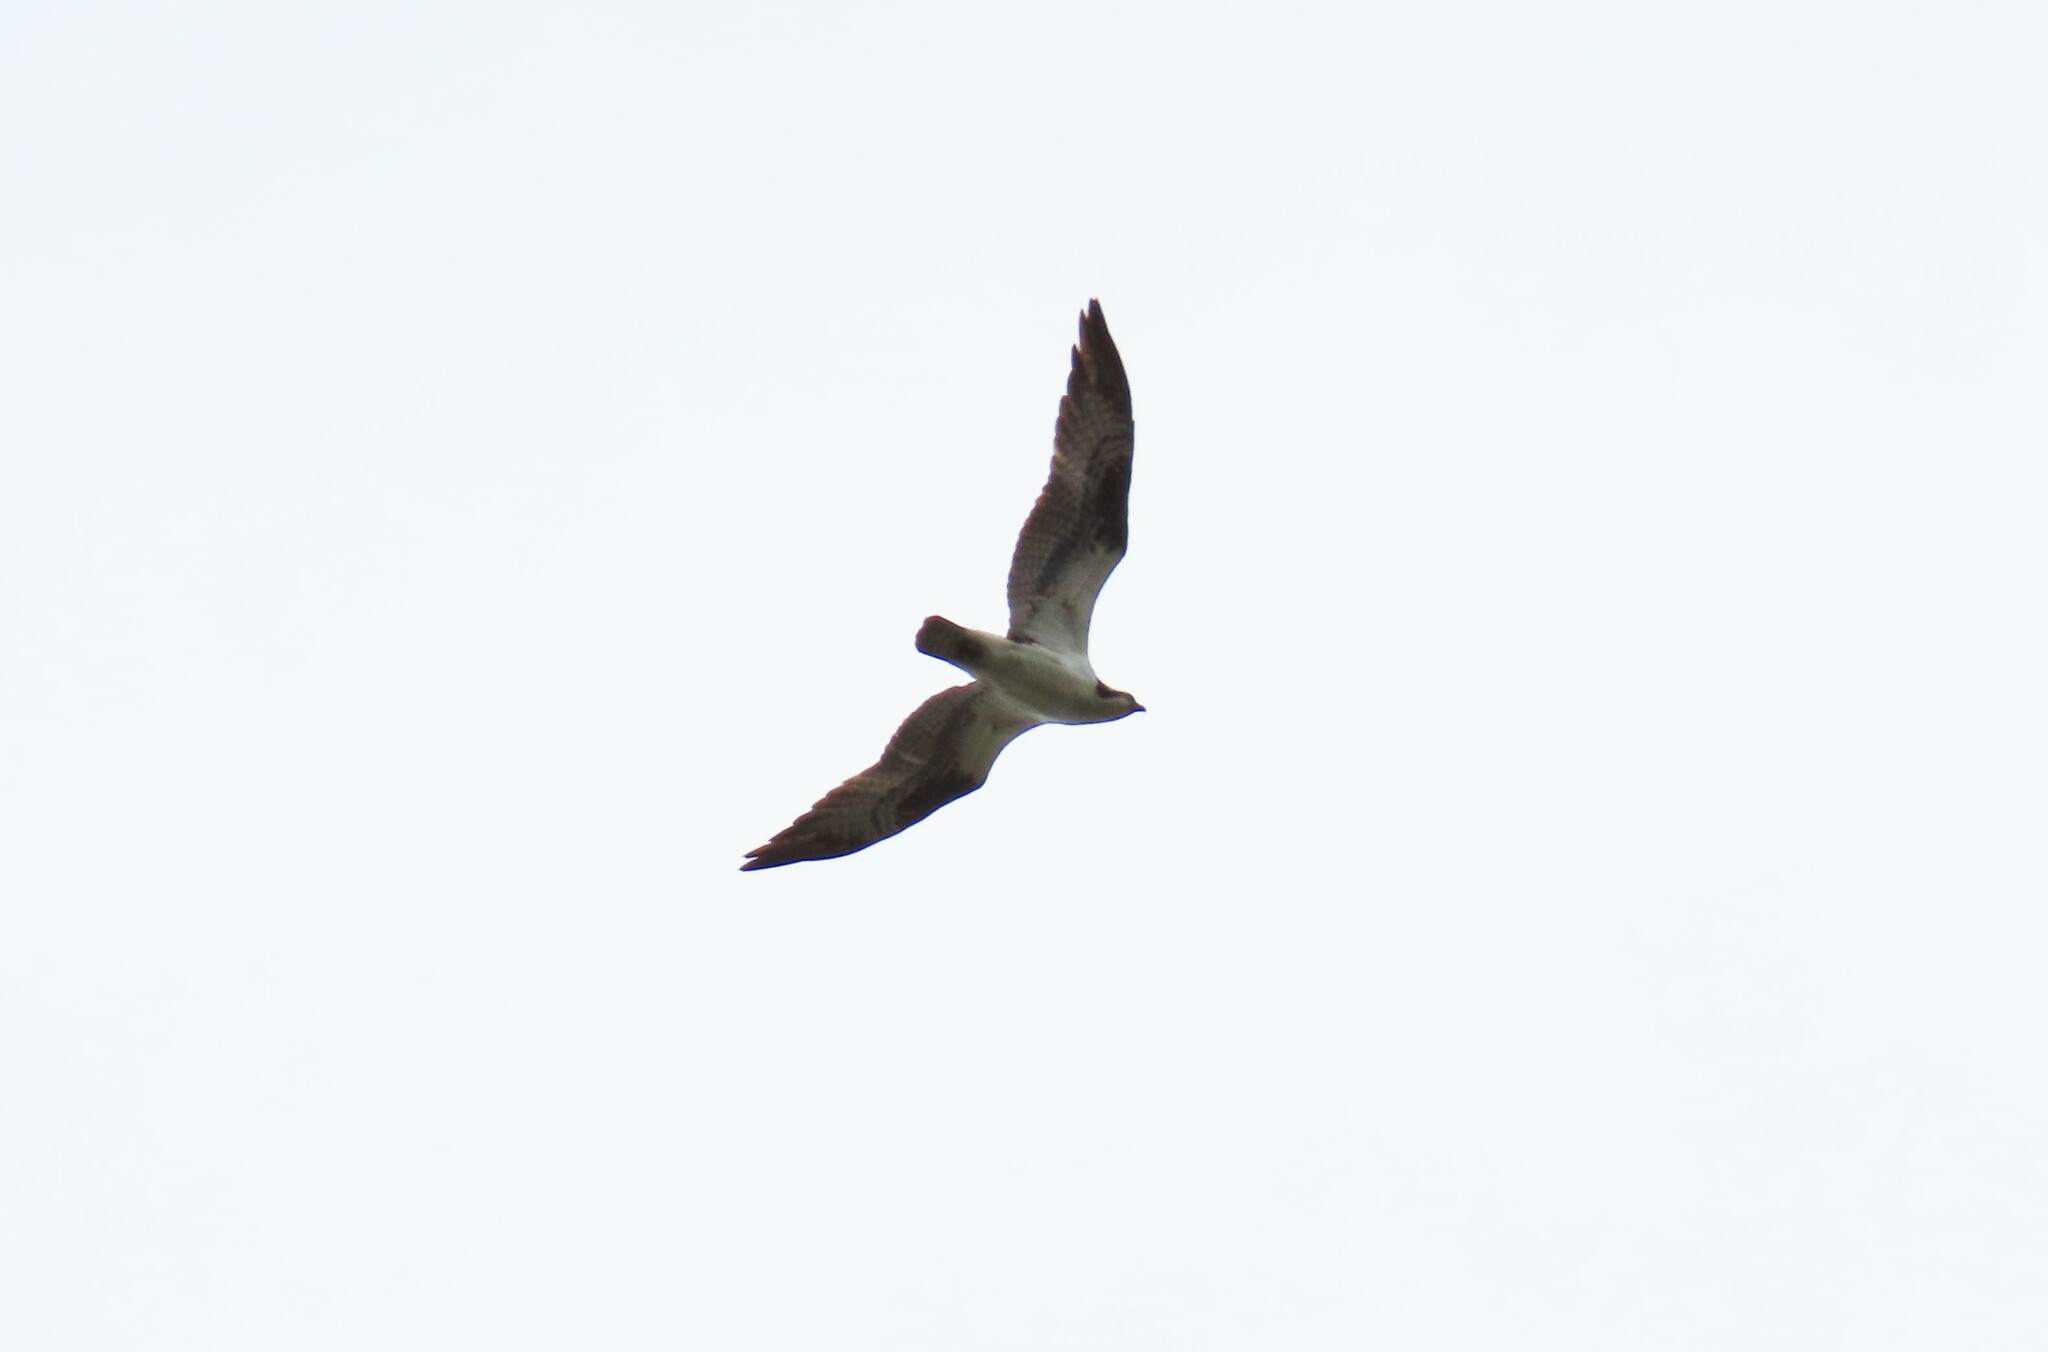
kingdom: Animalia
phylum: Chordata
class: Aves
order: Accipitriformes
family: Pandionidae
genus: Pandion
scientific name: Pandion haliaetus
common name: Osprey
